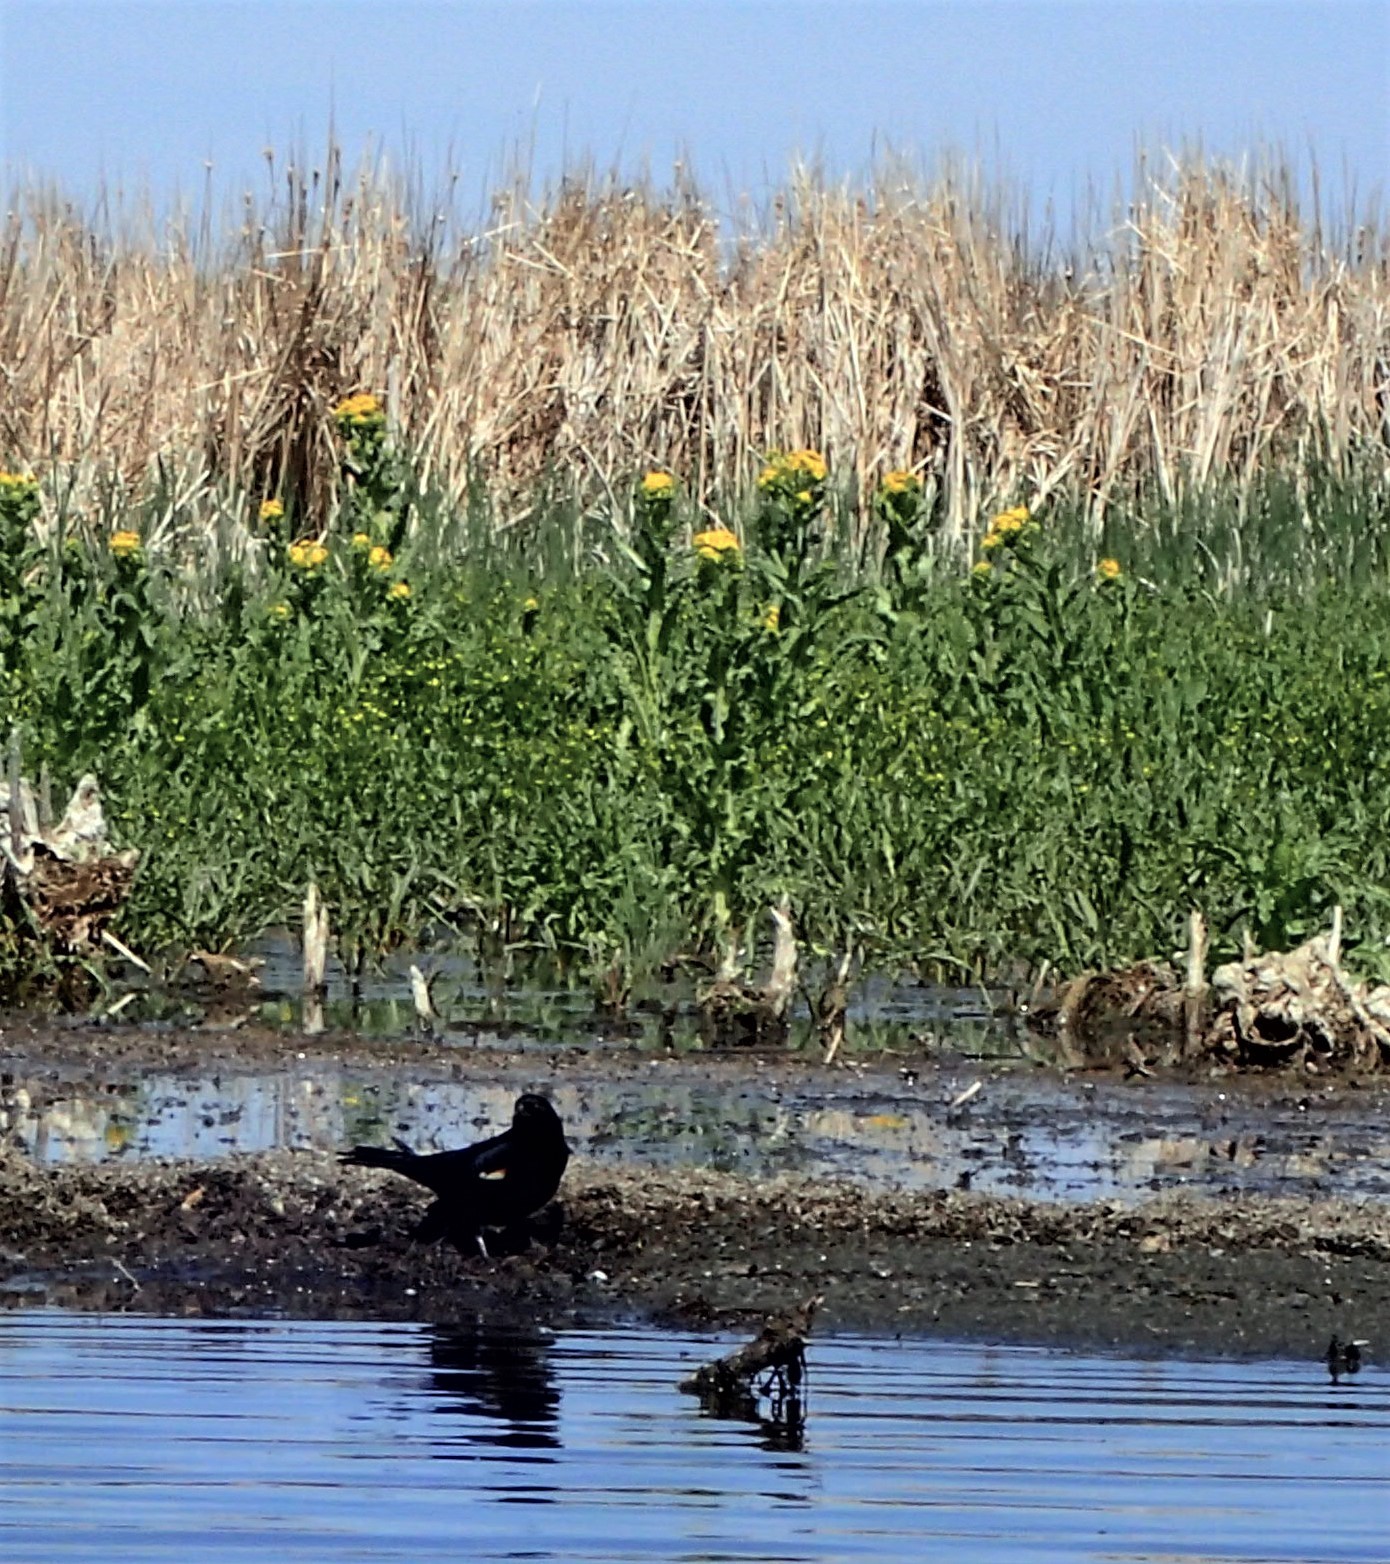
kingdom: Animalia
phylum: Chordata
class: Aves
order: Passeriformes
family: Icteridae
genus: Agelaius
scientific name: Agelaius phoeniceus
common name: Red-winged blackbird
